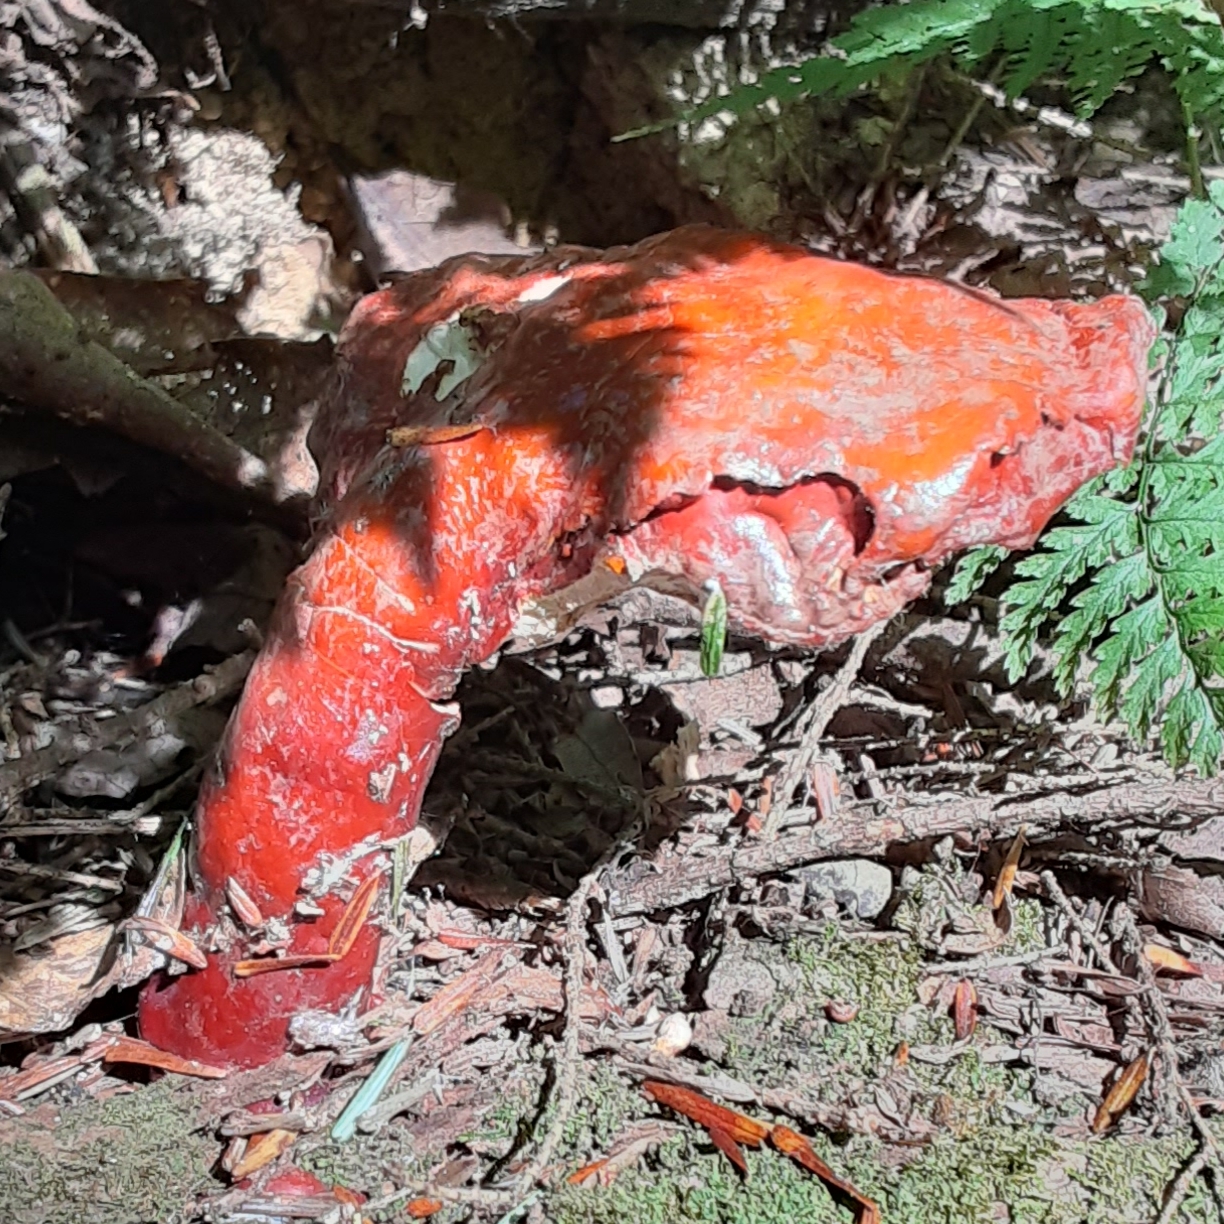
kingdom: Fungi
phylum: Basidiomycota
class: Agaricomycetes
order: Polyporales
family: Polyporaceae
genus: Ganoderma
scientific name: Ganoderma tsugae
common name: Hemlock varnish shelf
